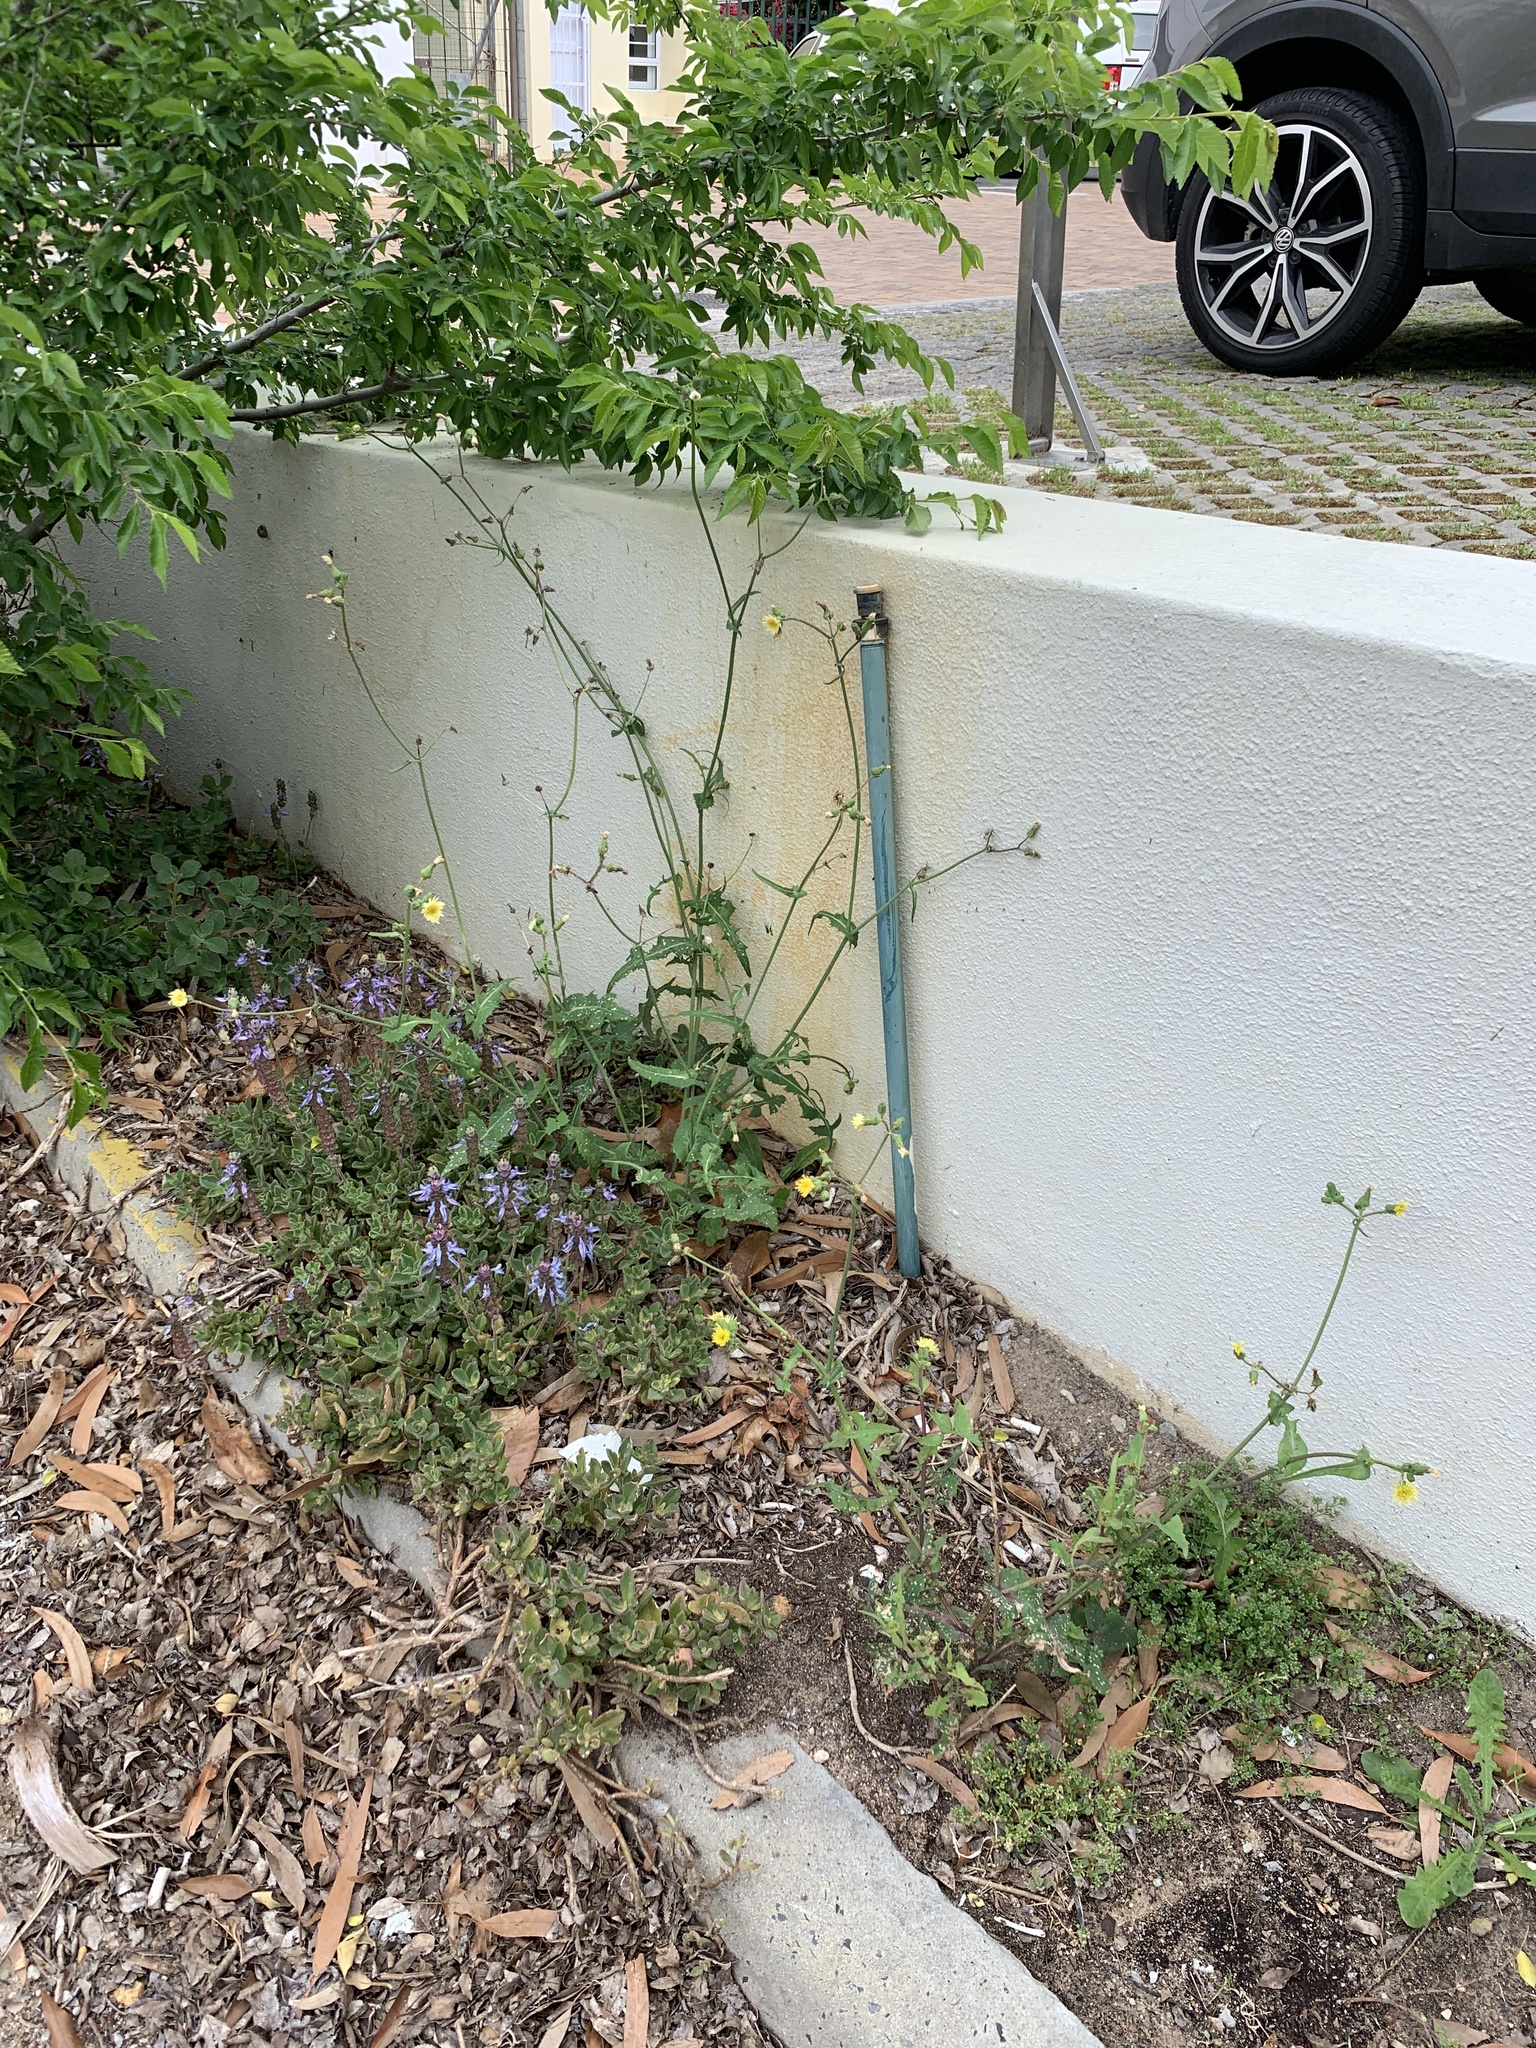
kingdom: Plantae
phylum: Tracheophyta
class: Magnoliopsida
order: Asterales
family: Asteraceae
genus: Sonchus
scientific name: Sonchus oleraceus
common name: Common sowthistle
